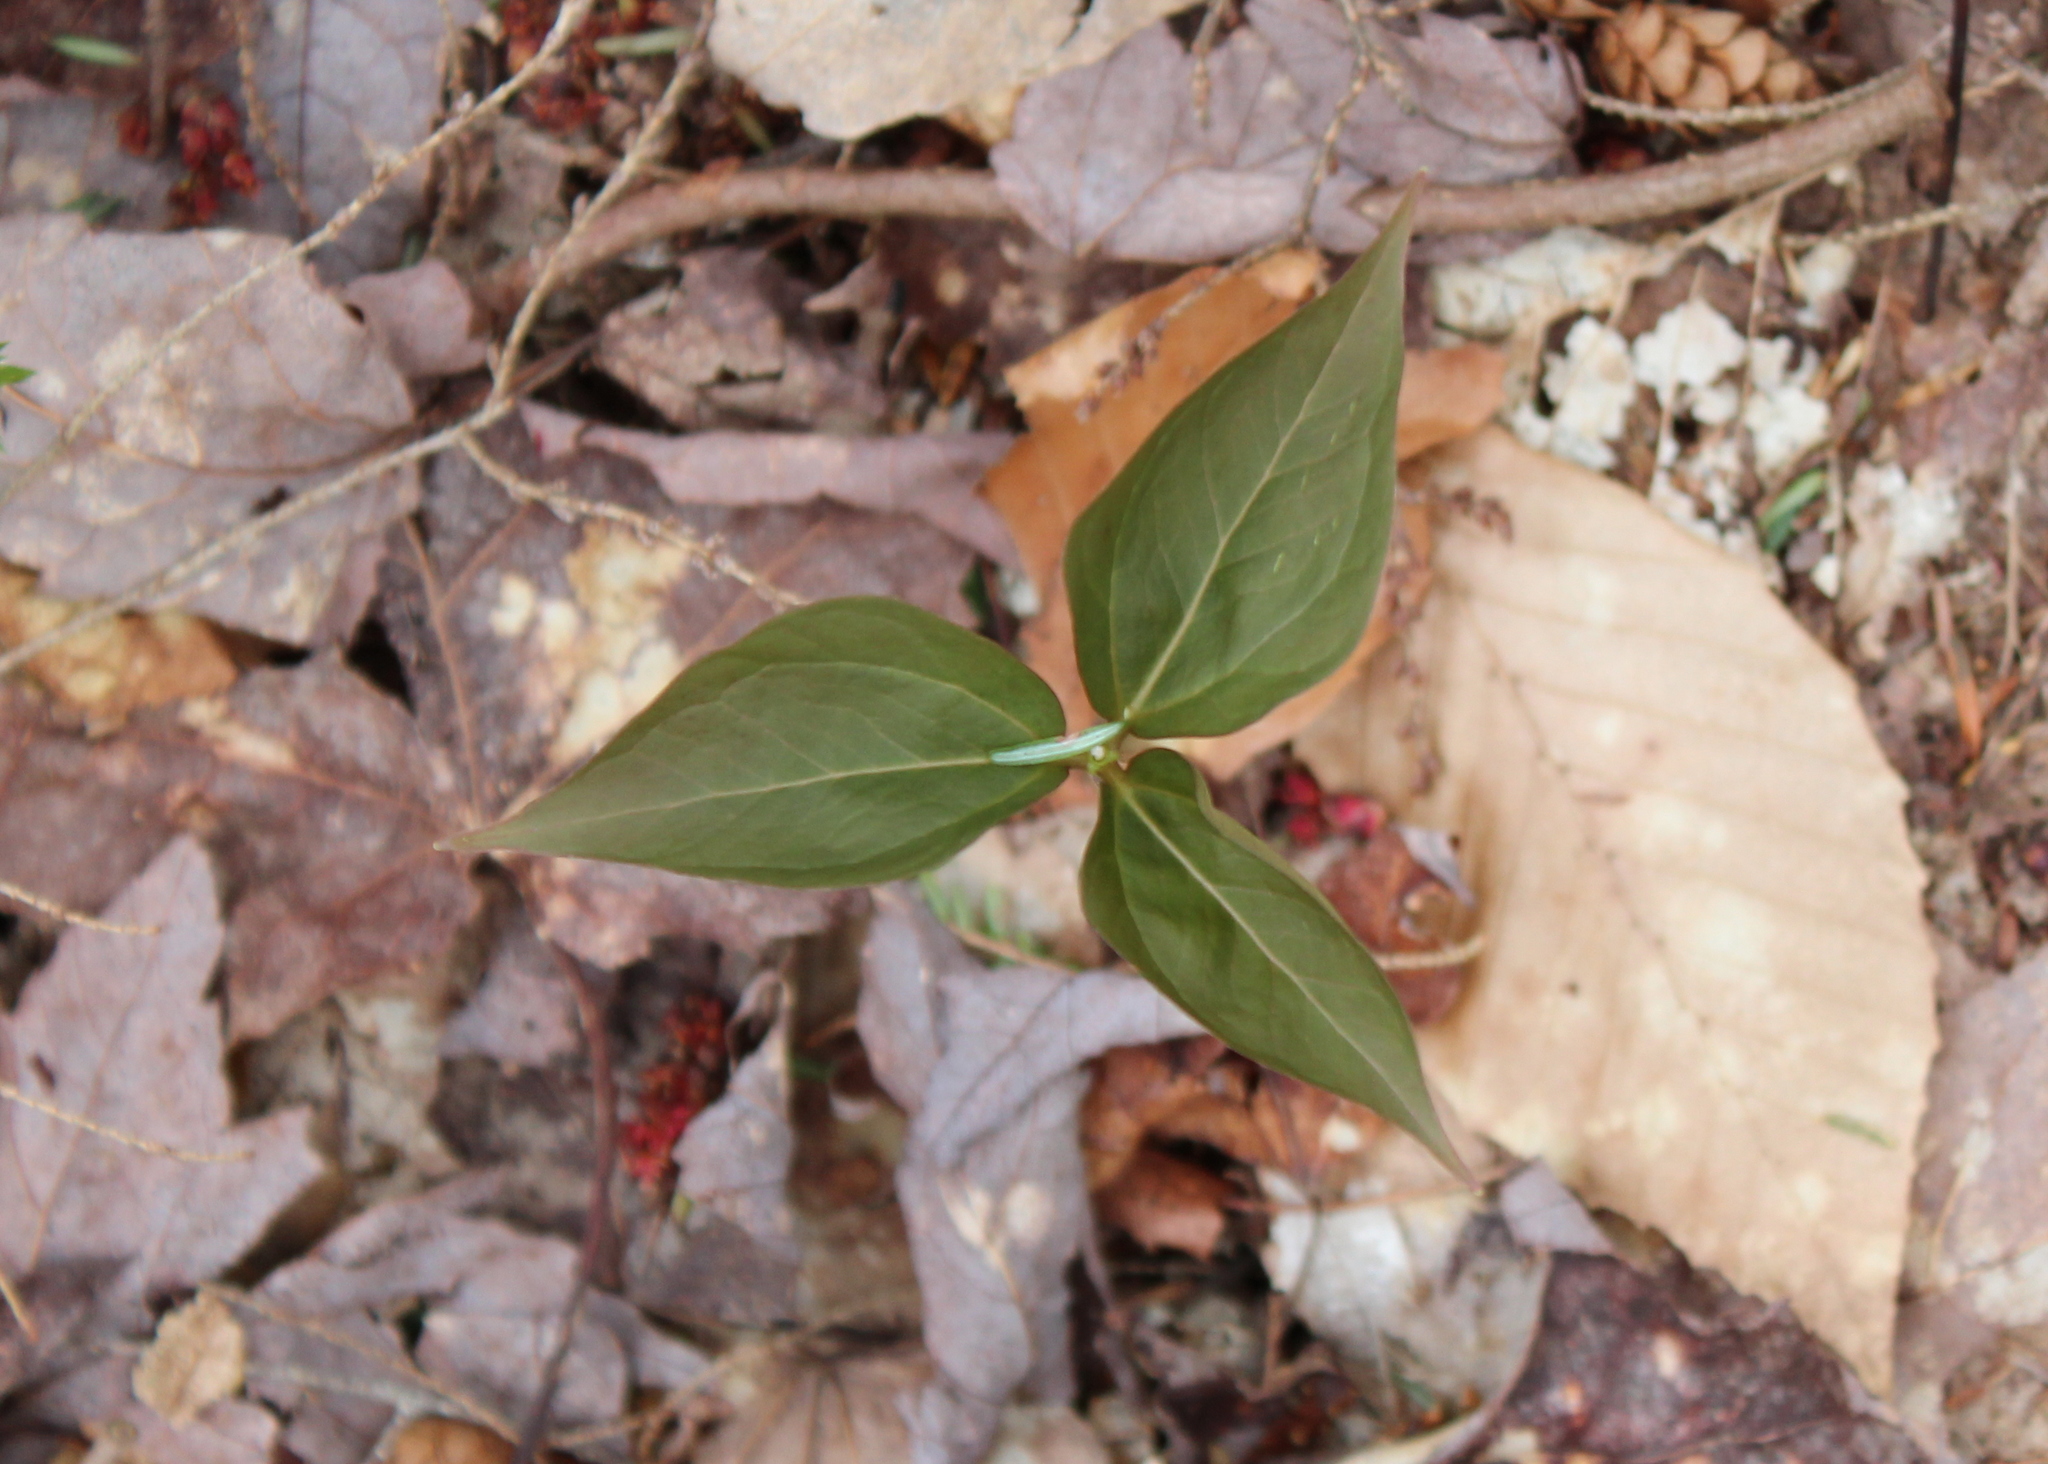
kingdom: Plantae
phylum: Tracheophyta
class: Liliopsida
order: Liliales
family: Melanthiaceae
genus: Trillium
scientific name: Trillium undulatum
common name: Paint trillium
